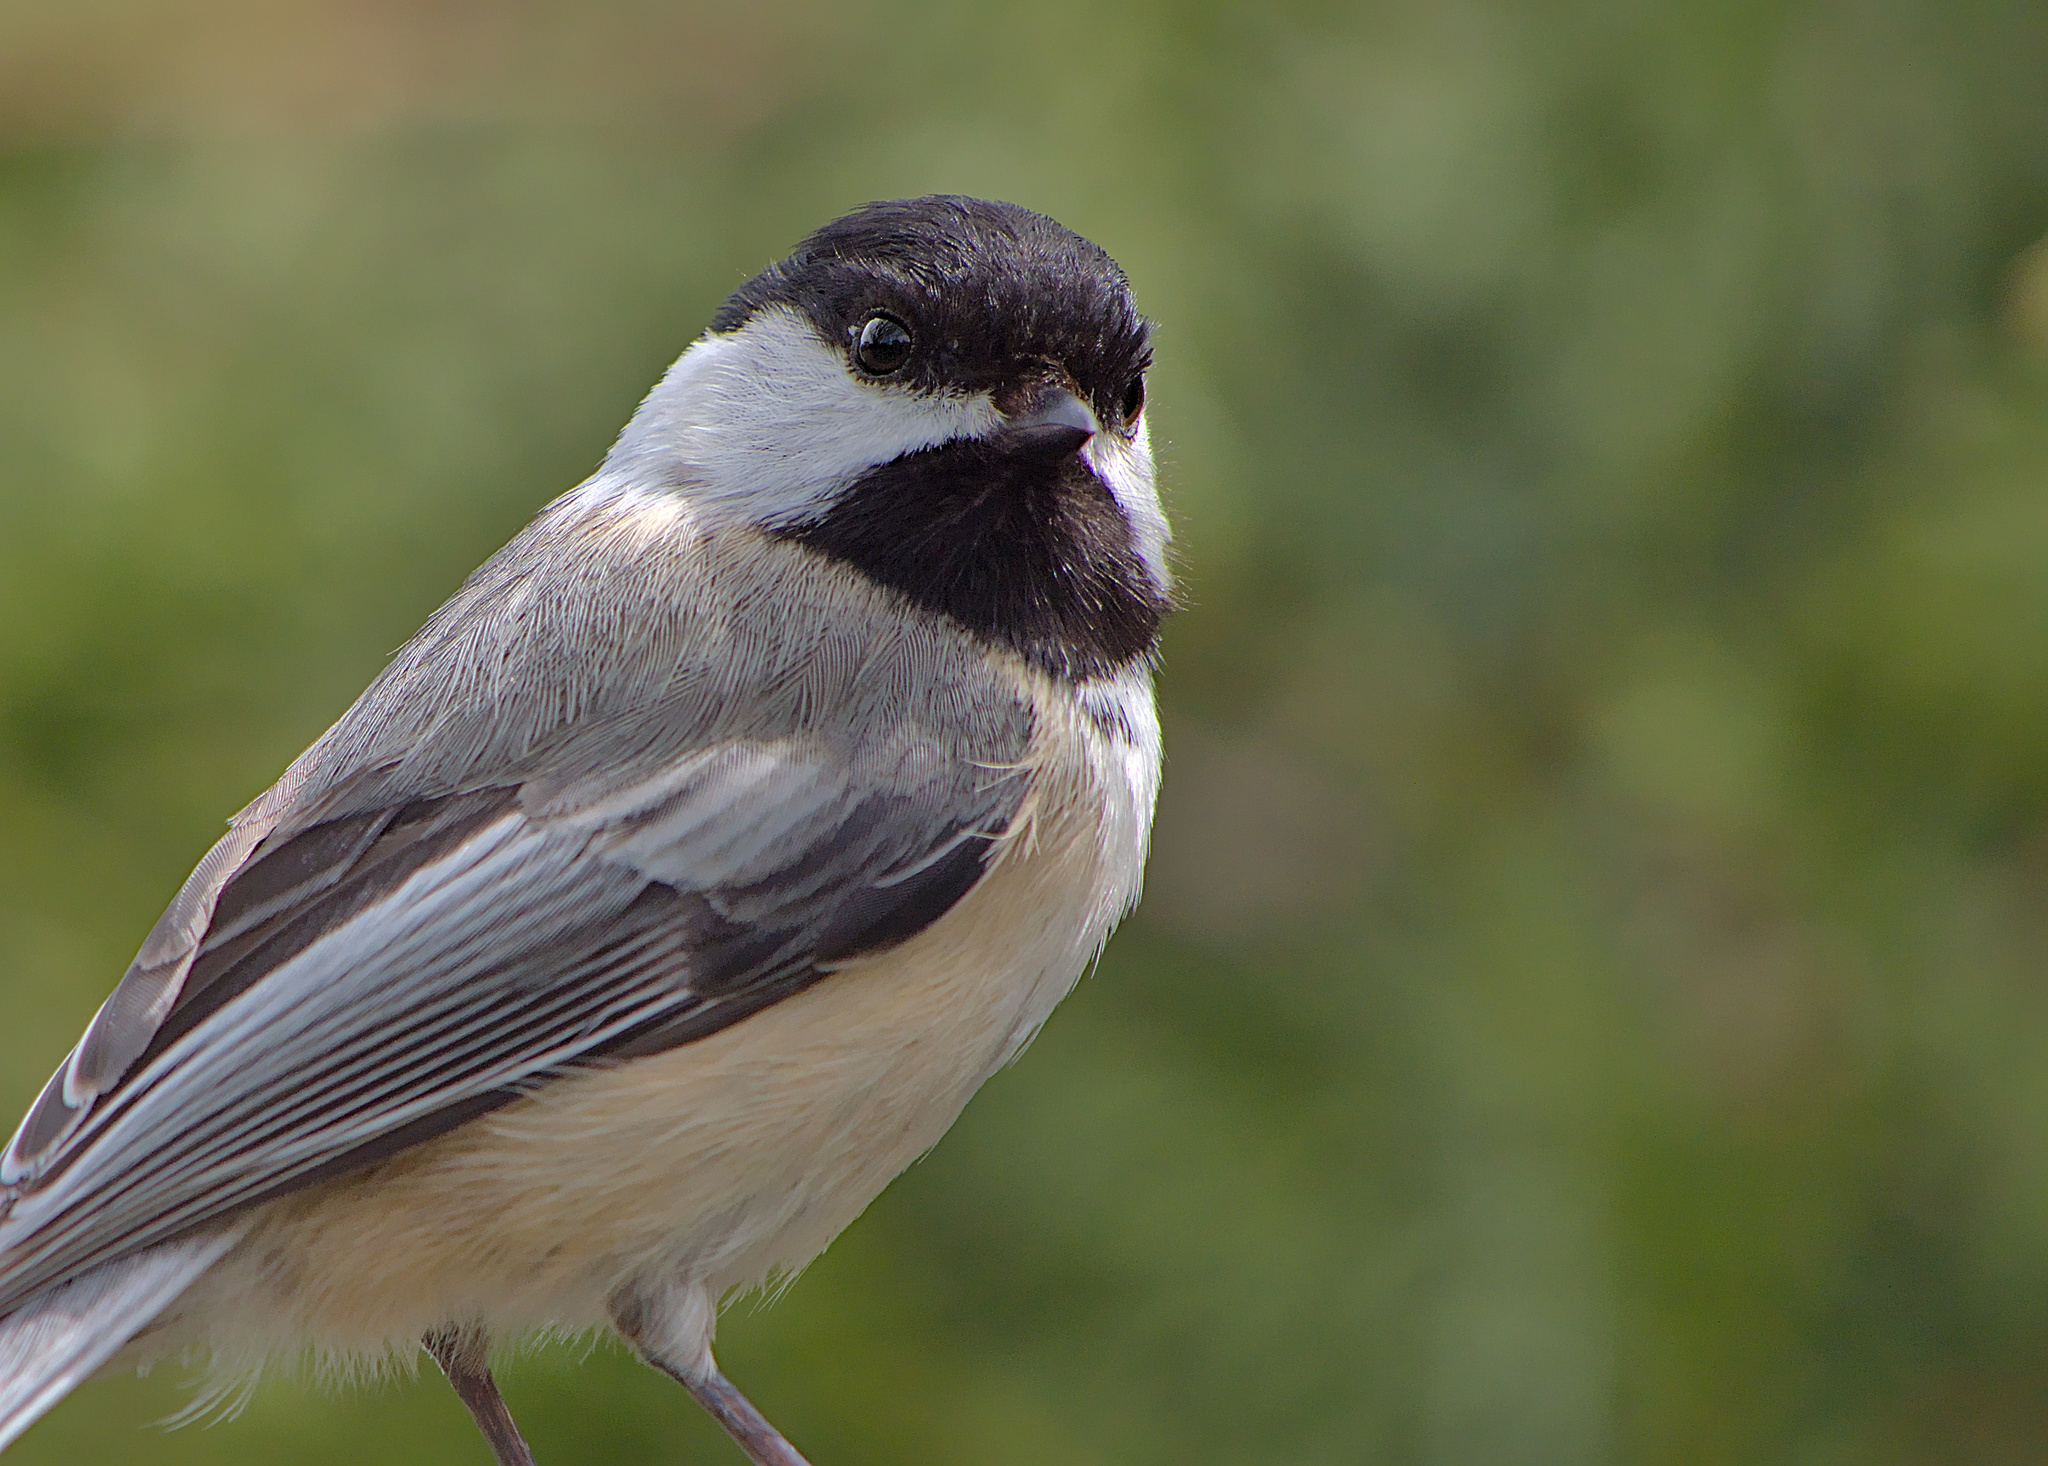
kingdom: Animalia
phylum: Chordata
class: Aves
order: Passeriformes
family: Paridae
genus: Poecile
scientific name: Poecile atricapillus
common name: Black-capped chickadee
